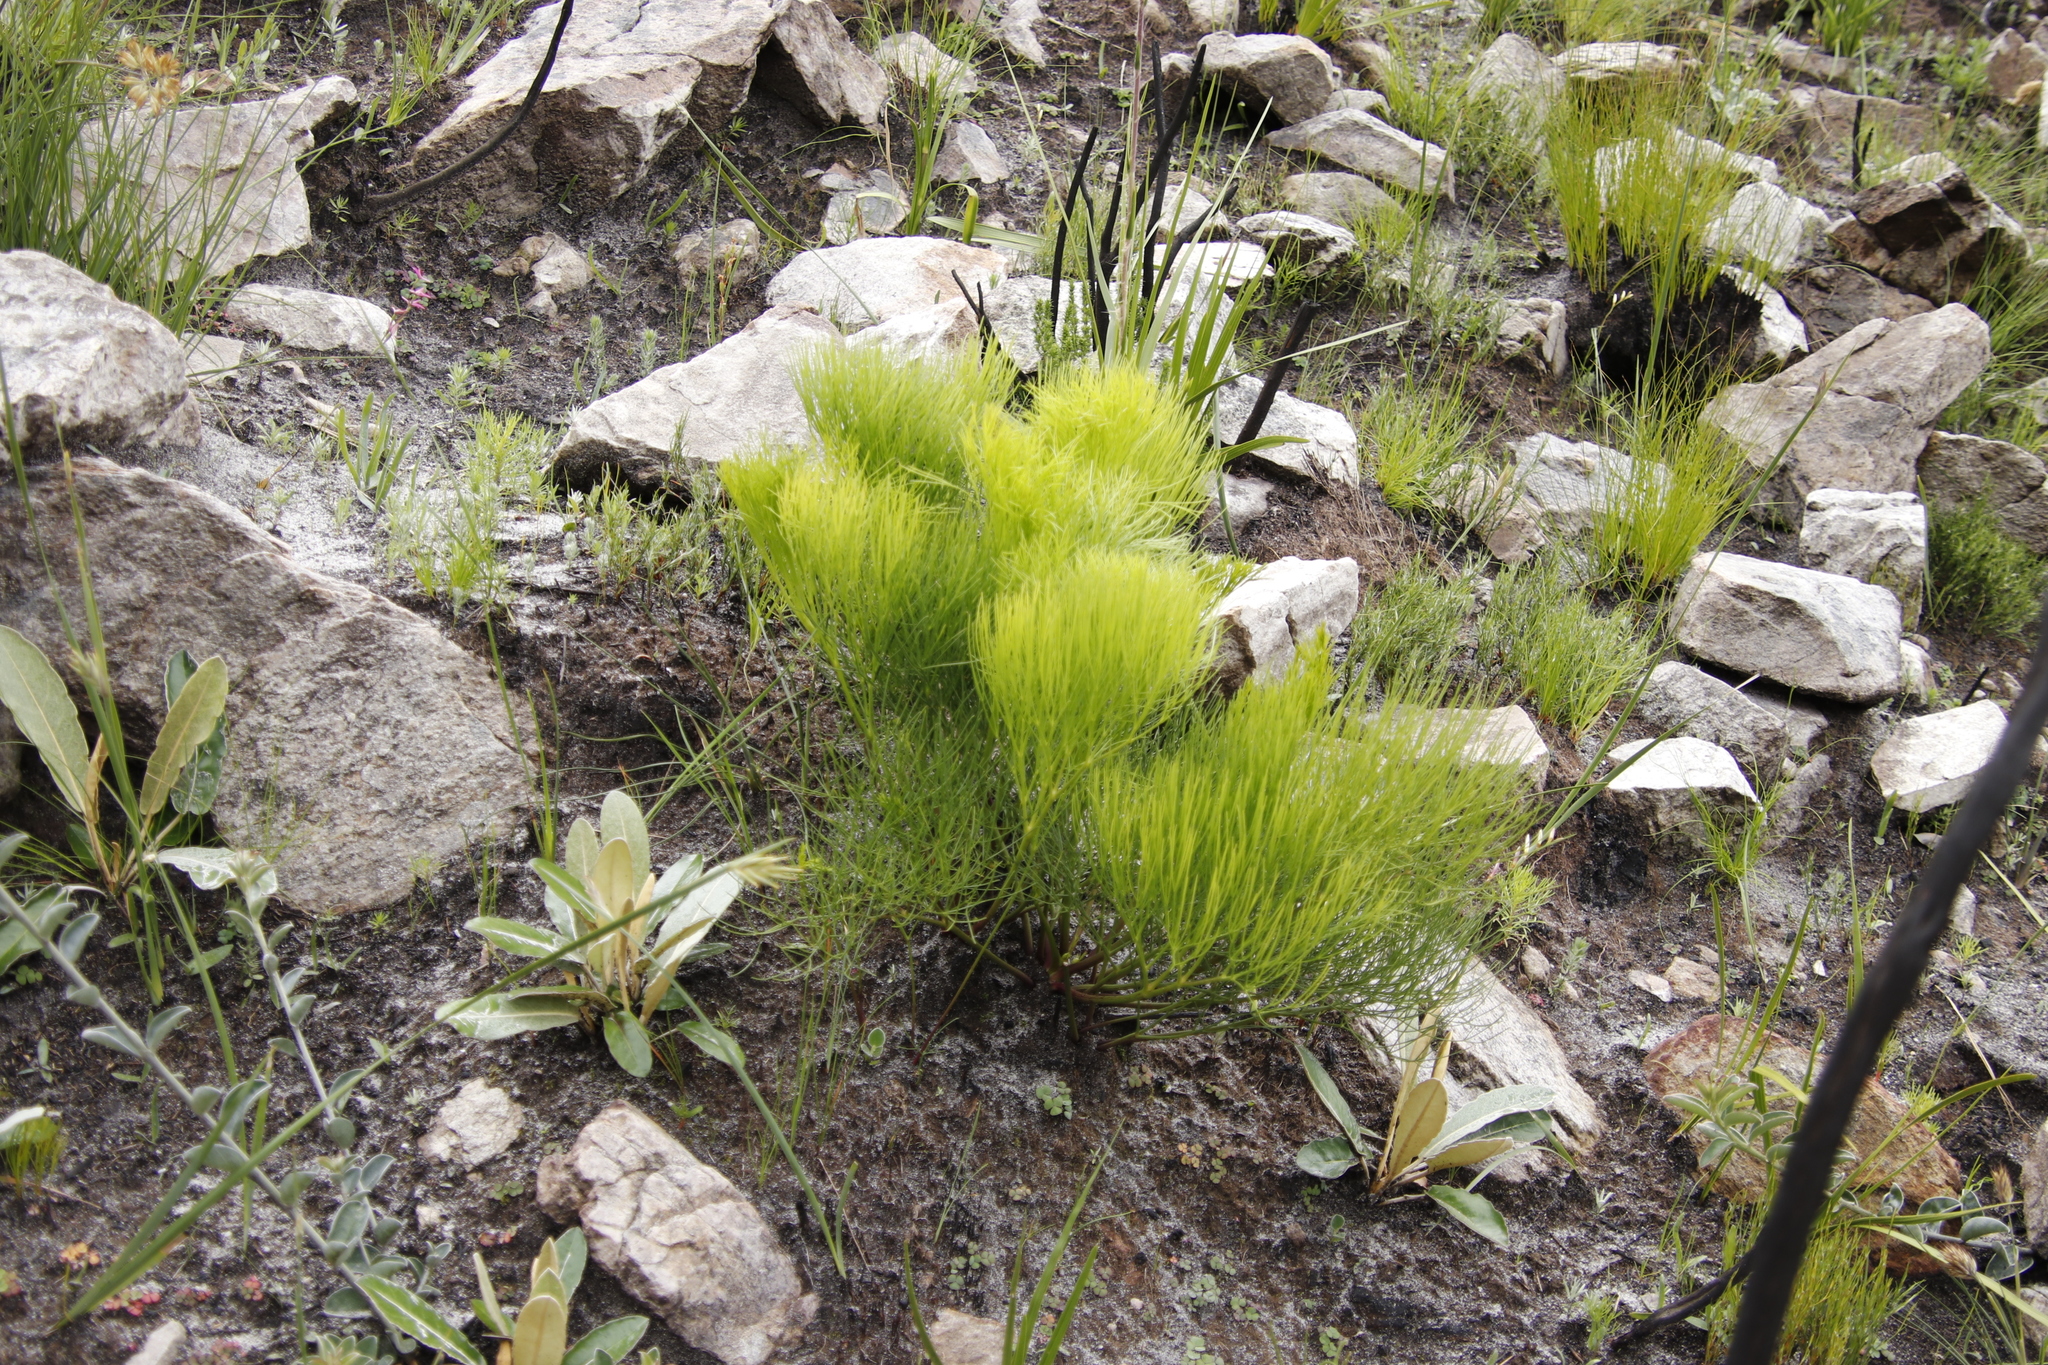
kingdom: Plantae
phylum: Tracheophyta
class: Magnoliopsida
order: Apiales
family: Apiaceae
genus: Nanobubon
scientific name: Nanobubon strictum
